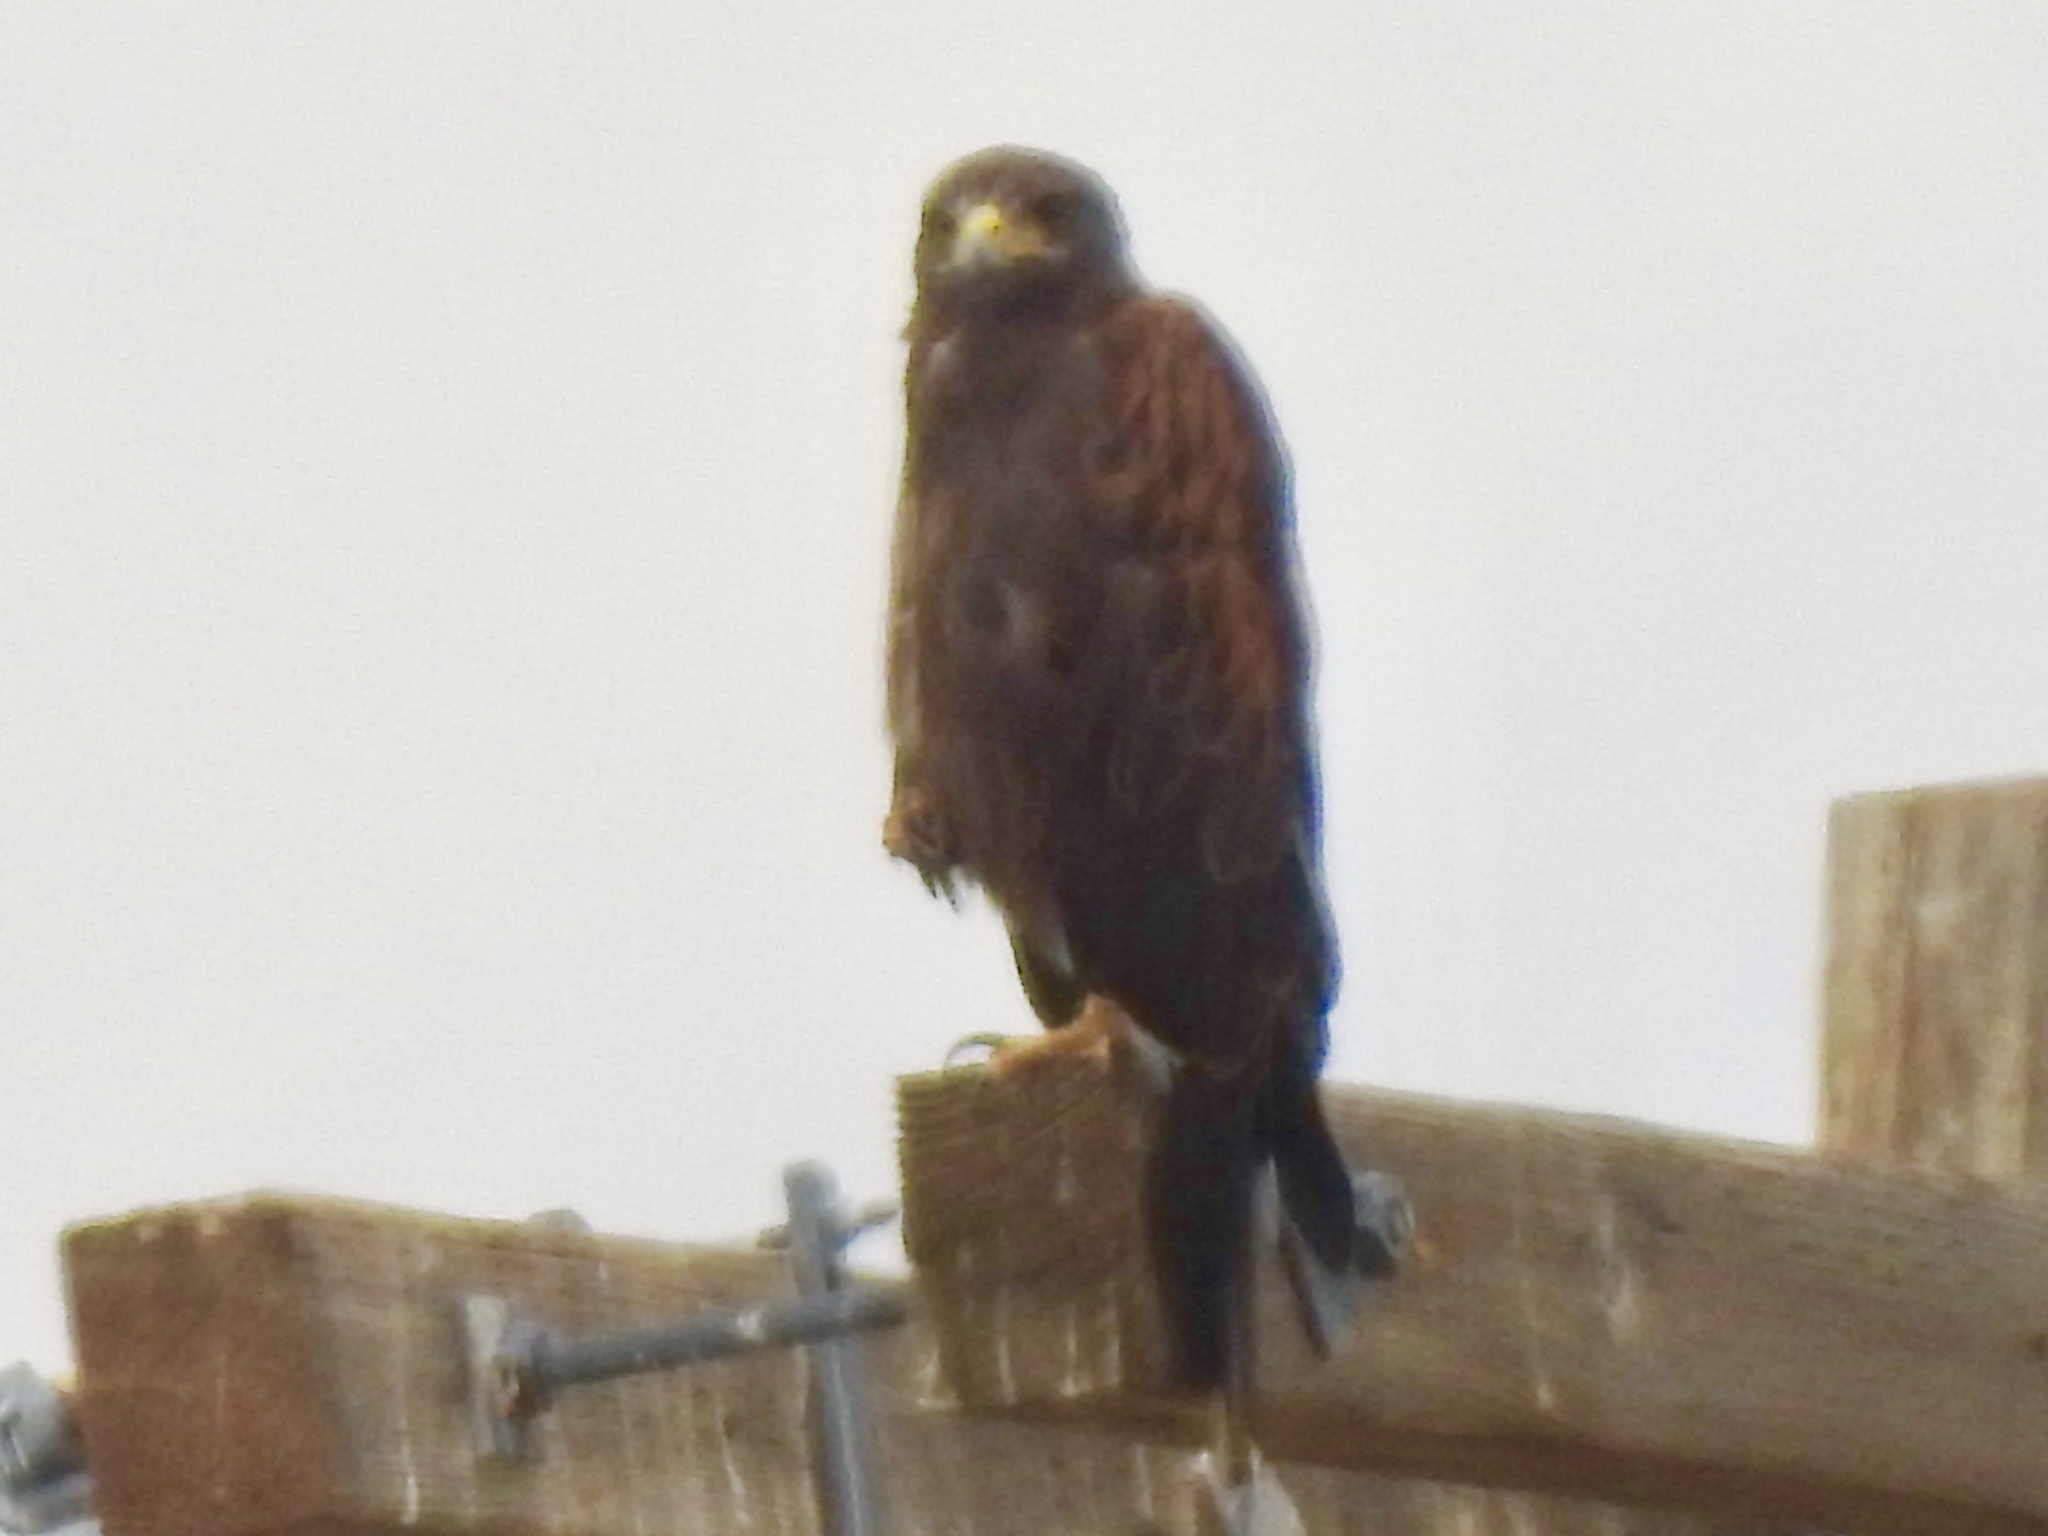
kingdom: Animalia
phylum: Chordata
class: Aves
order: Accipitriformes
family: Accipitridae
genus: Parabuteo
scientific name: Parabuteo unicinctus
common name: Harris's hawk
